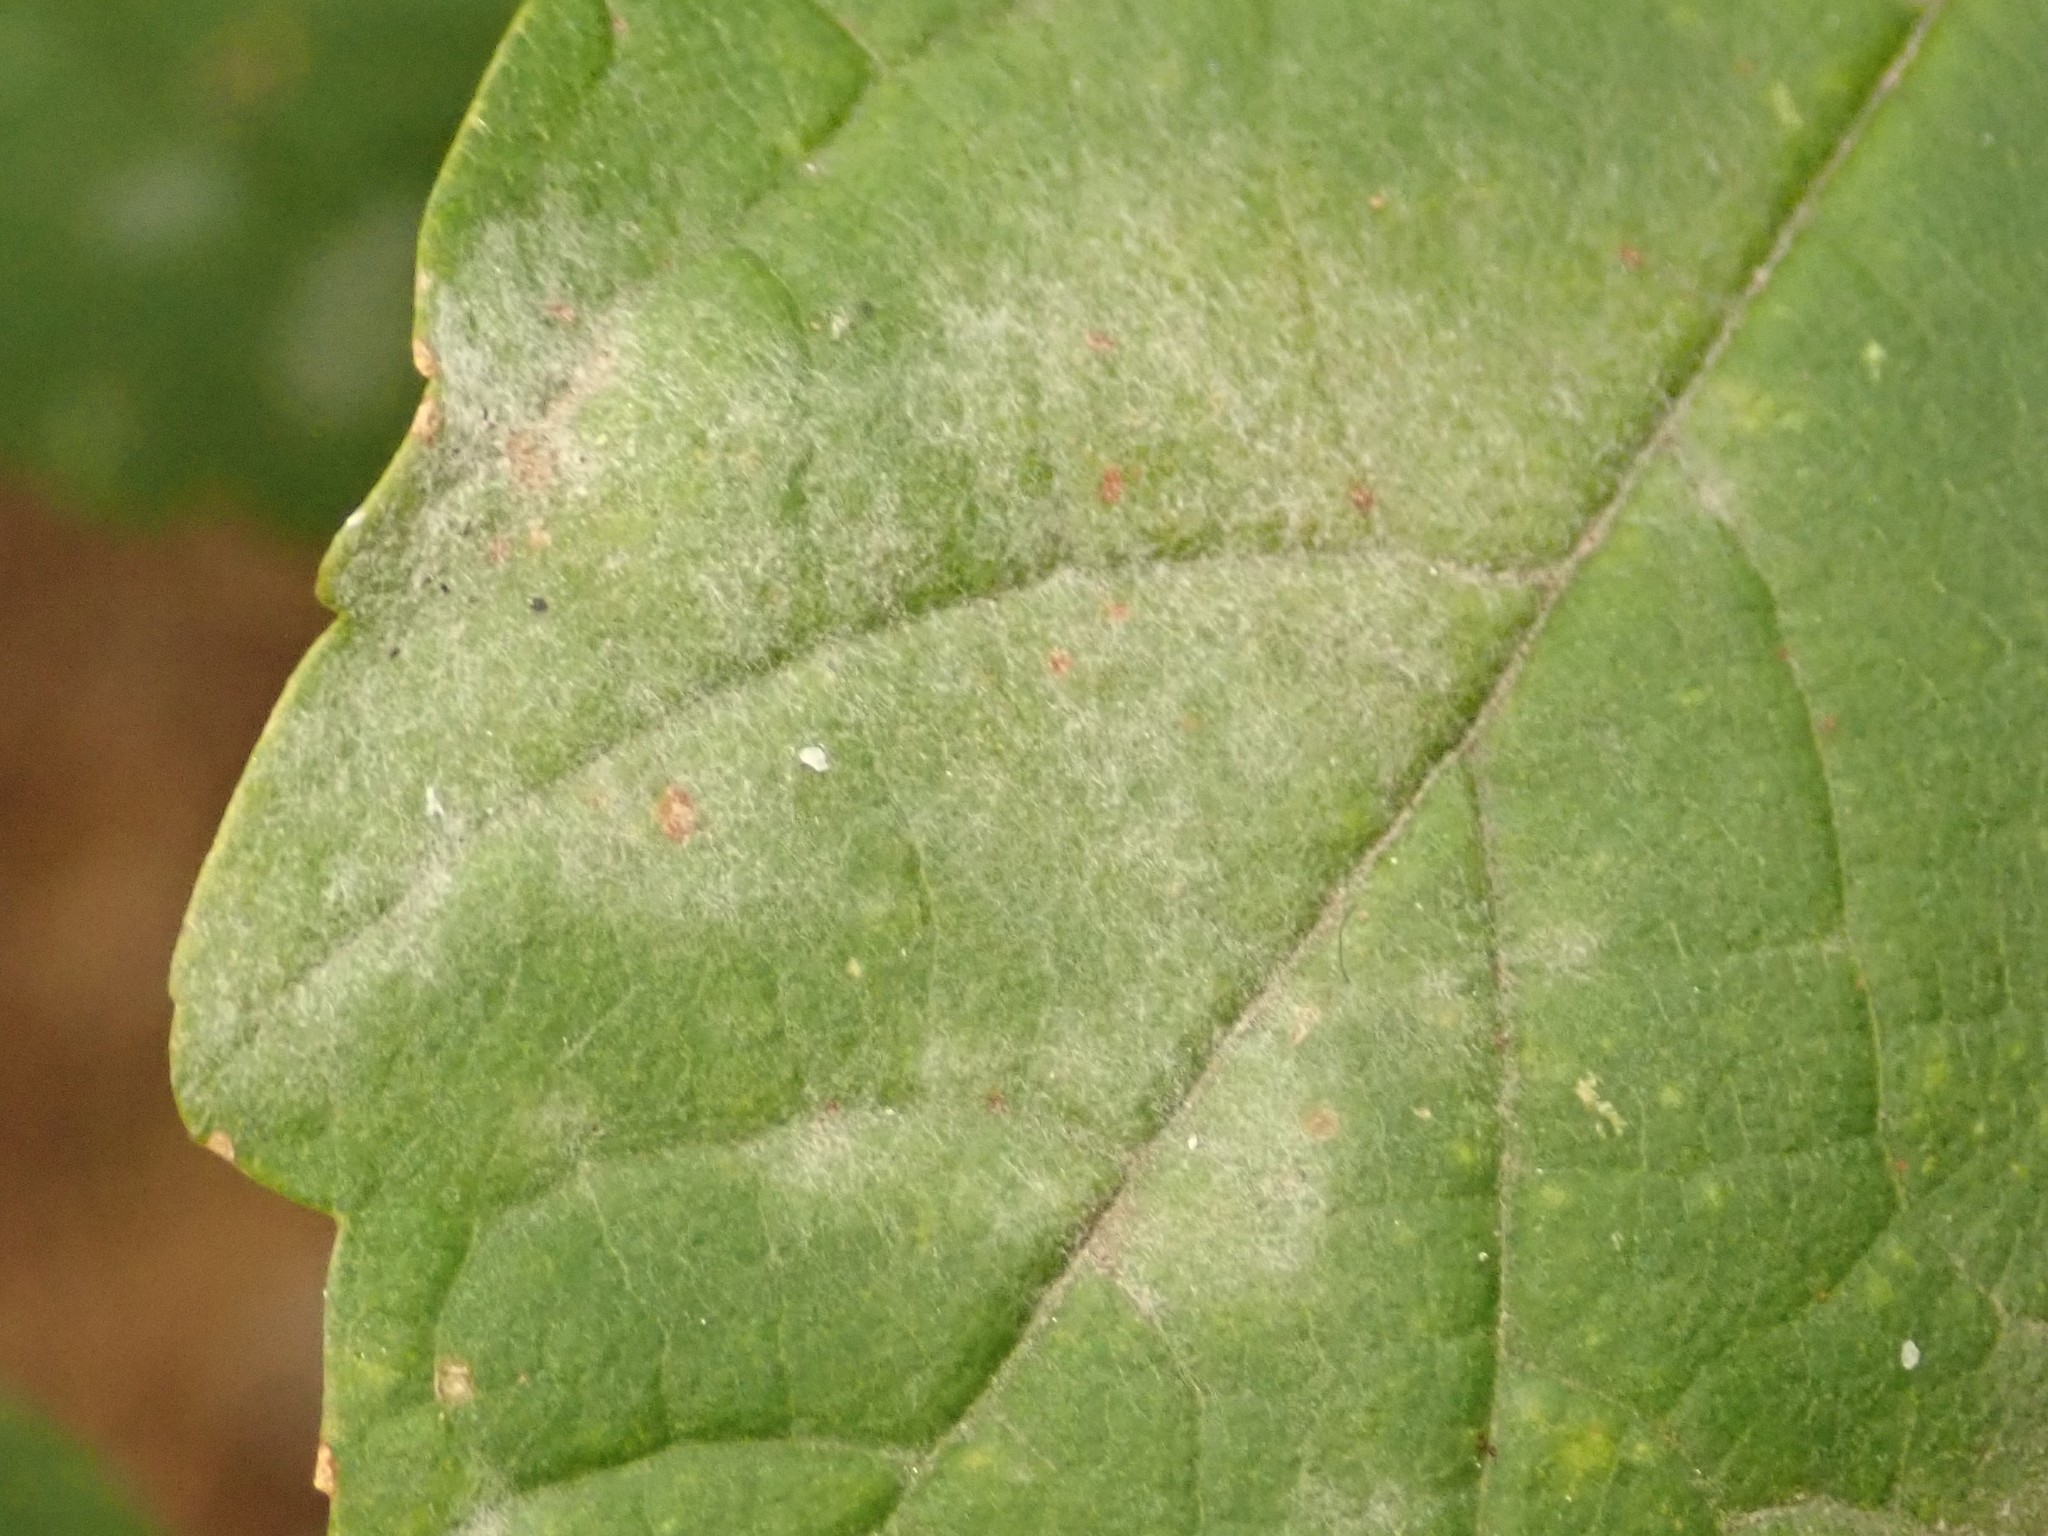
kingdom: Fungi
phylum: Ascomycota
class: Leotiomycetes
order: Helotiales
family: Erysiphaceae
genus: Sawadaea
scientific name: Sawadaea bicornis
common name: Maple mildew
